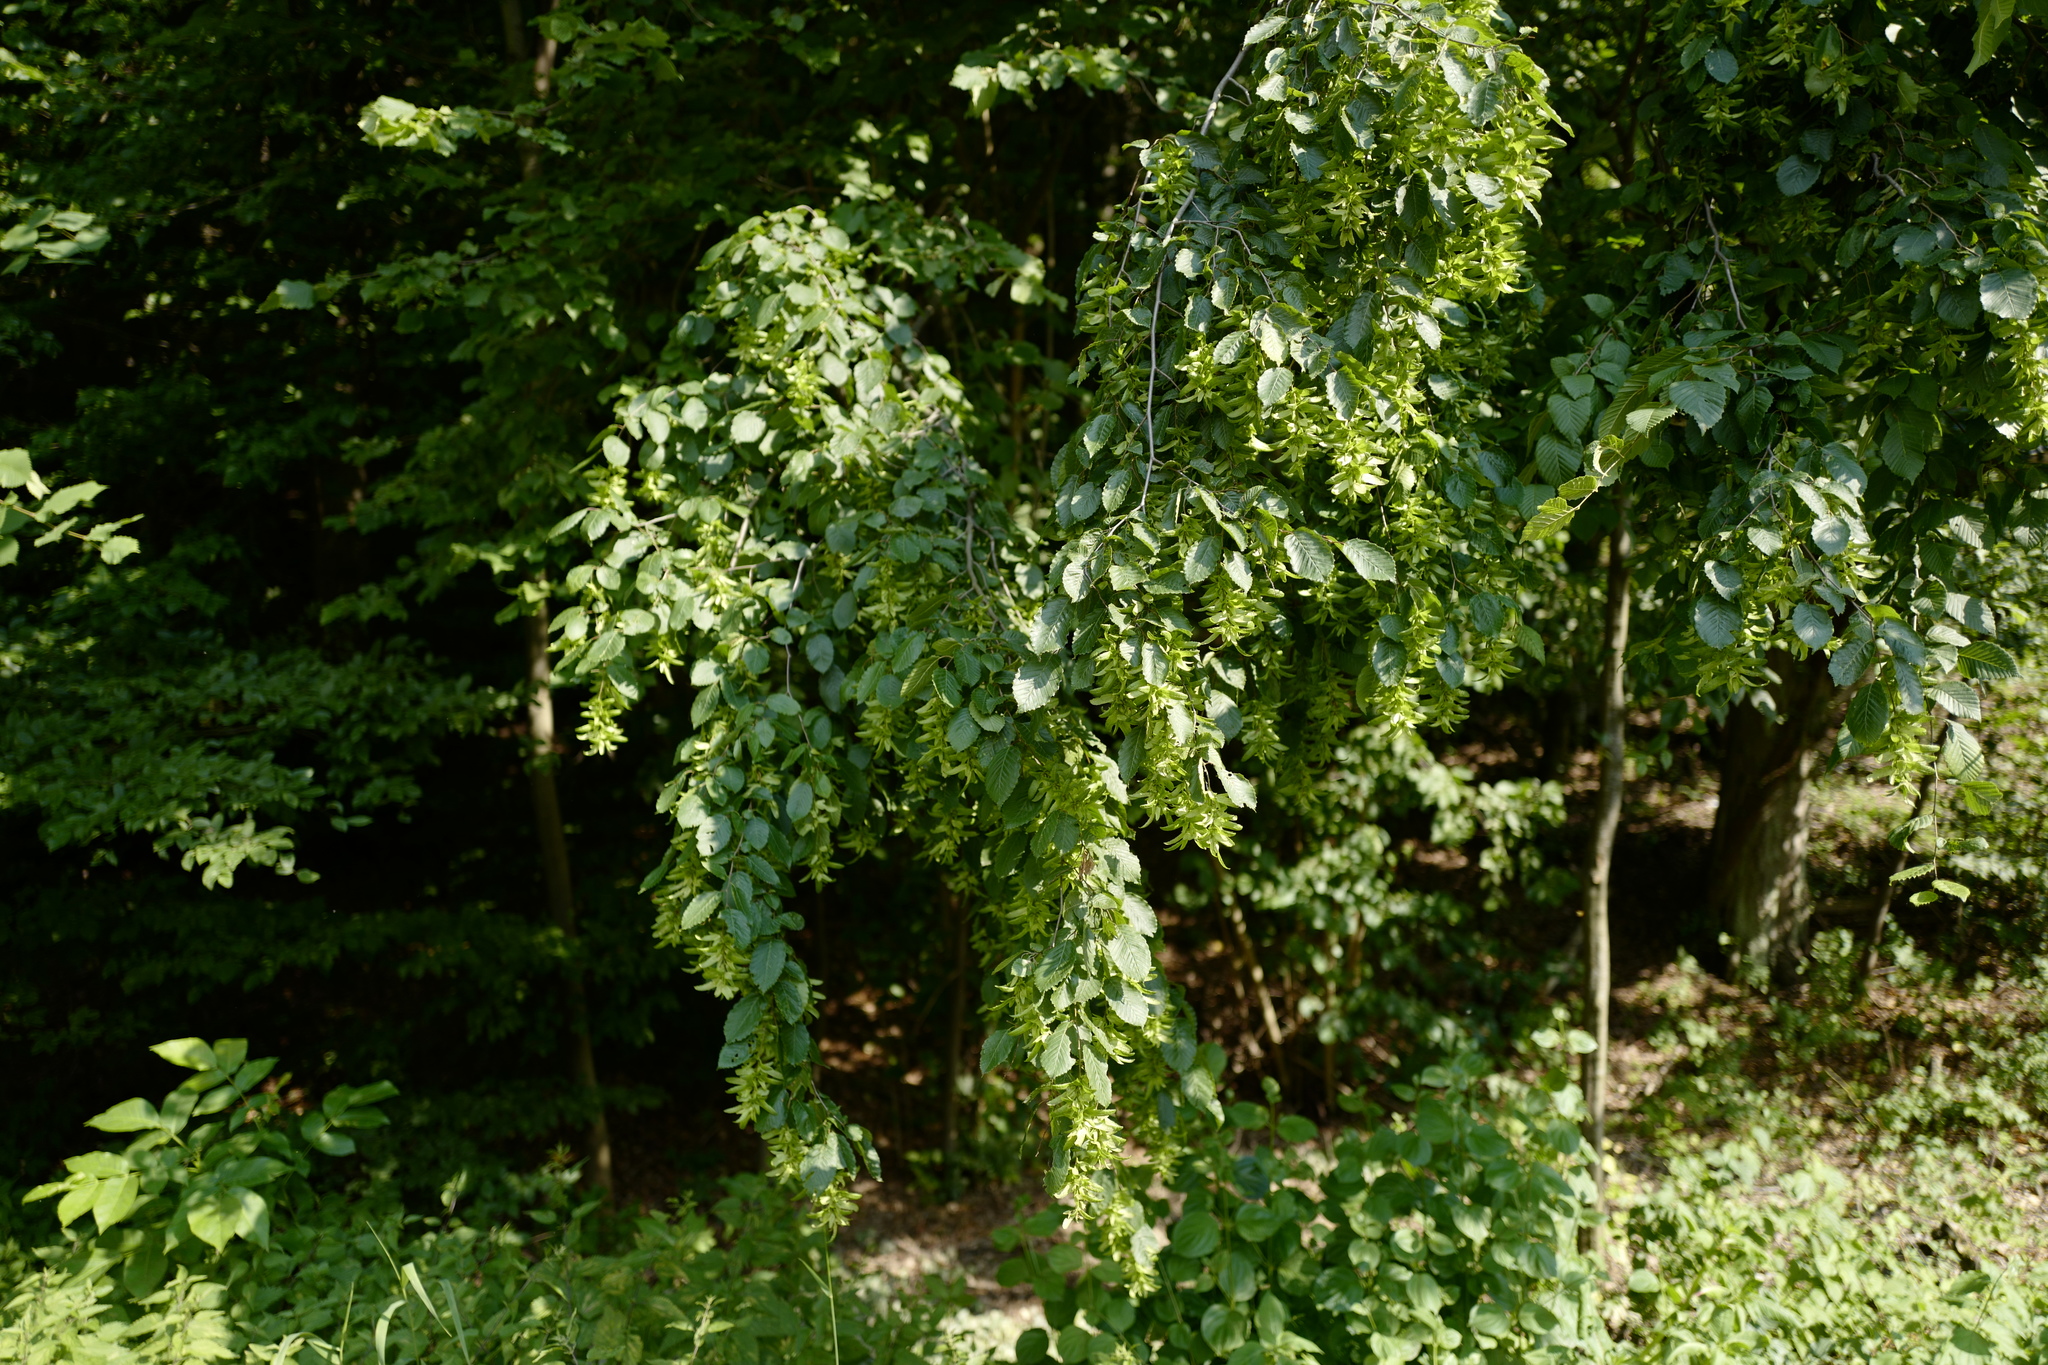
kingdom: Plantae
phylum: Tracheophyta
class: Magnoliopsida
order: Fagales
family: Betulaceae
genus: Carpinus
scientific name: Carpinus betulus
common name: Hornbeam
